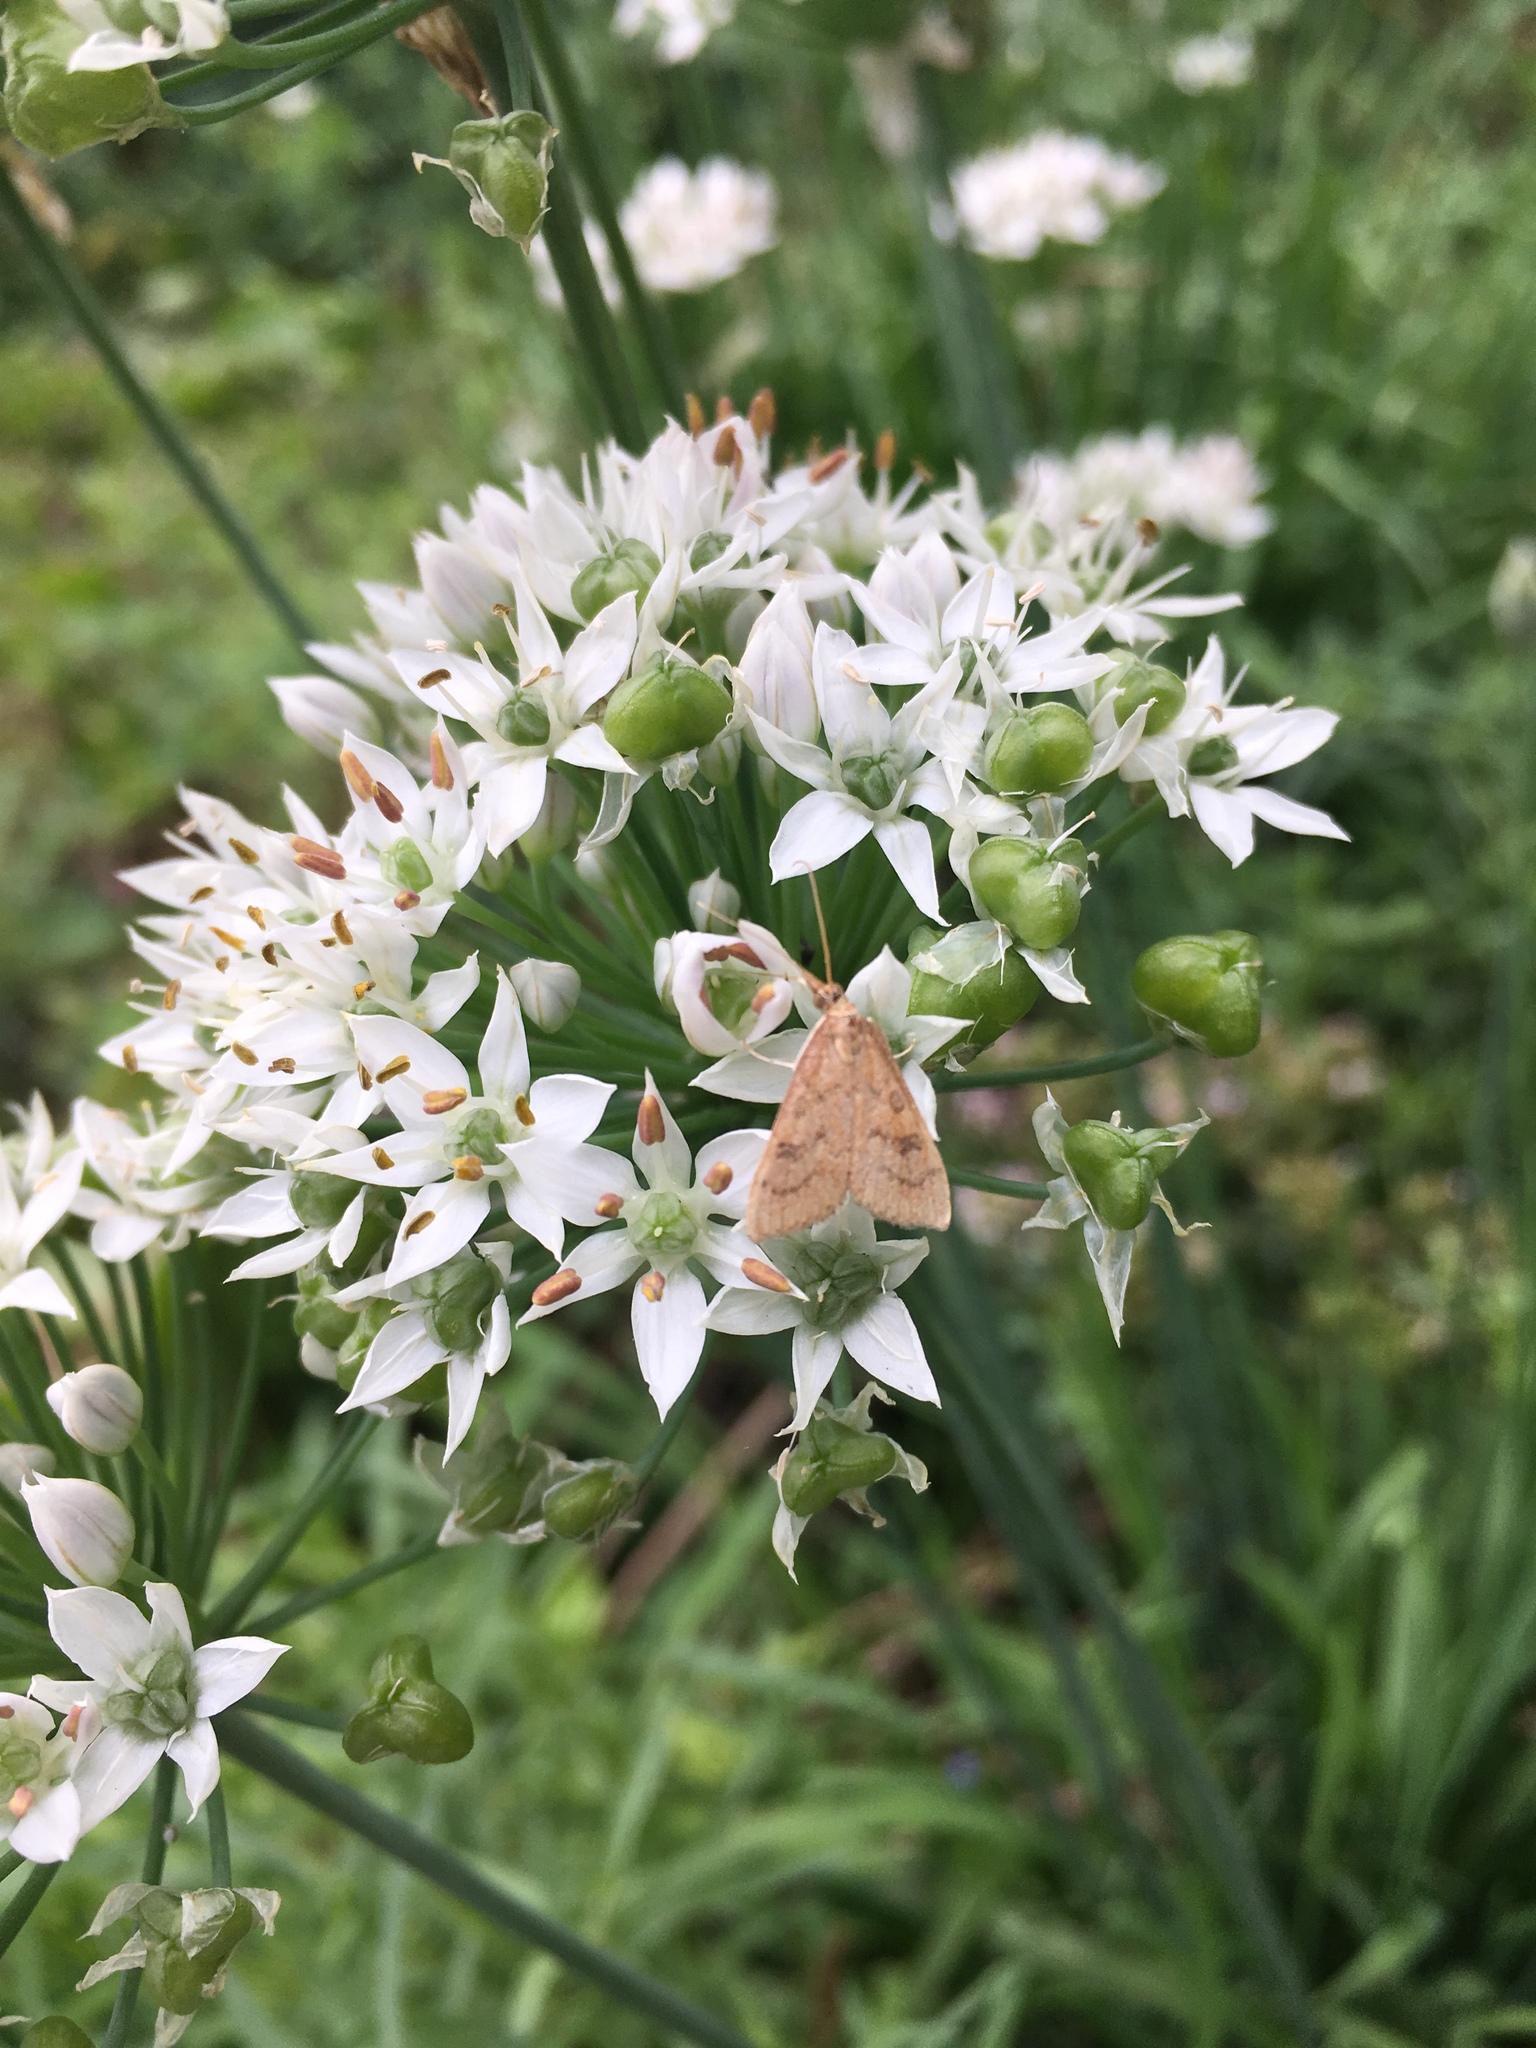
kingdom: Animalia
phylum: Arthropoda
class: Insecta
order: Lepidoptera
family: Crambidae
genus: Udea
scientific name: Udea rubigalis
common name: Celery leaftier moth
